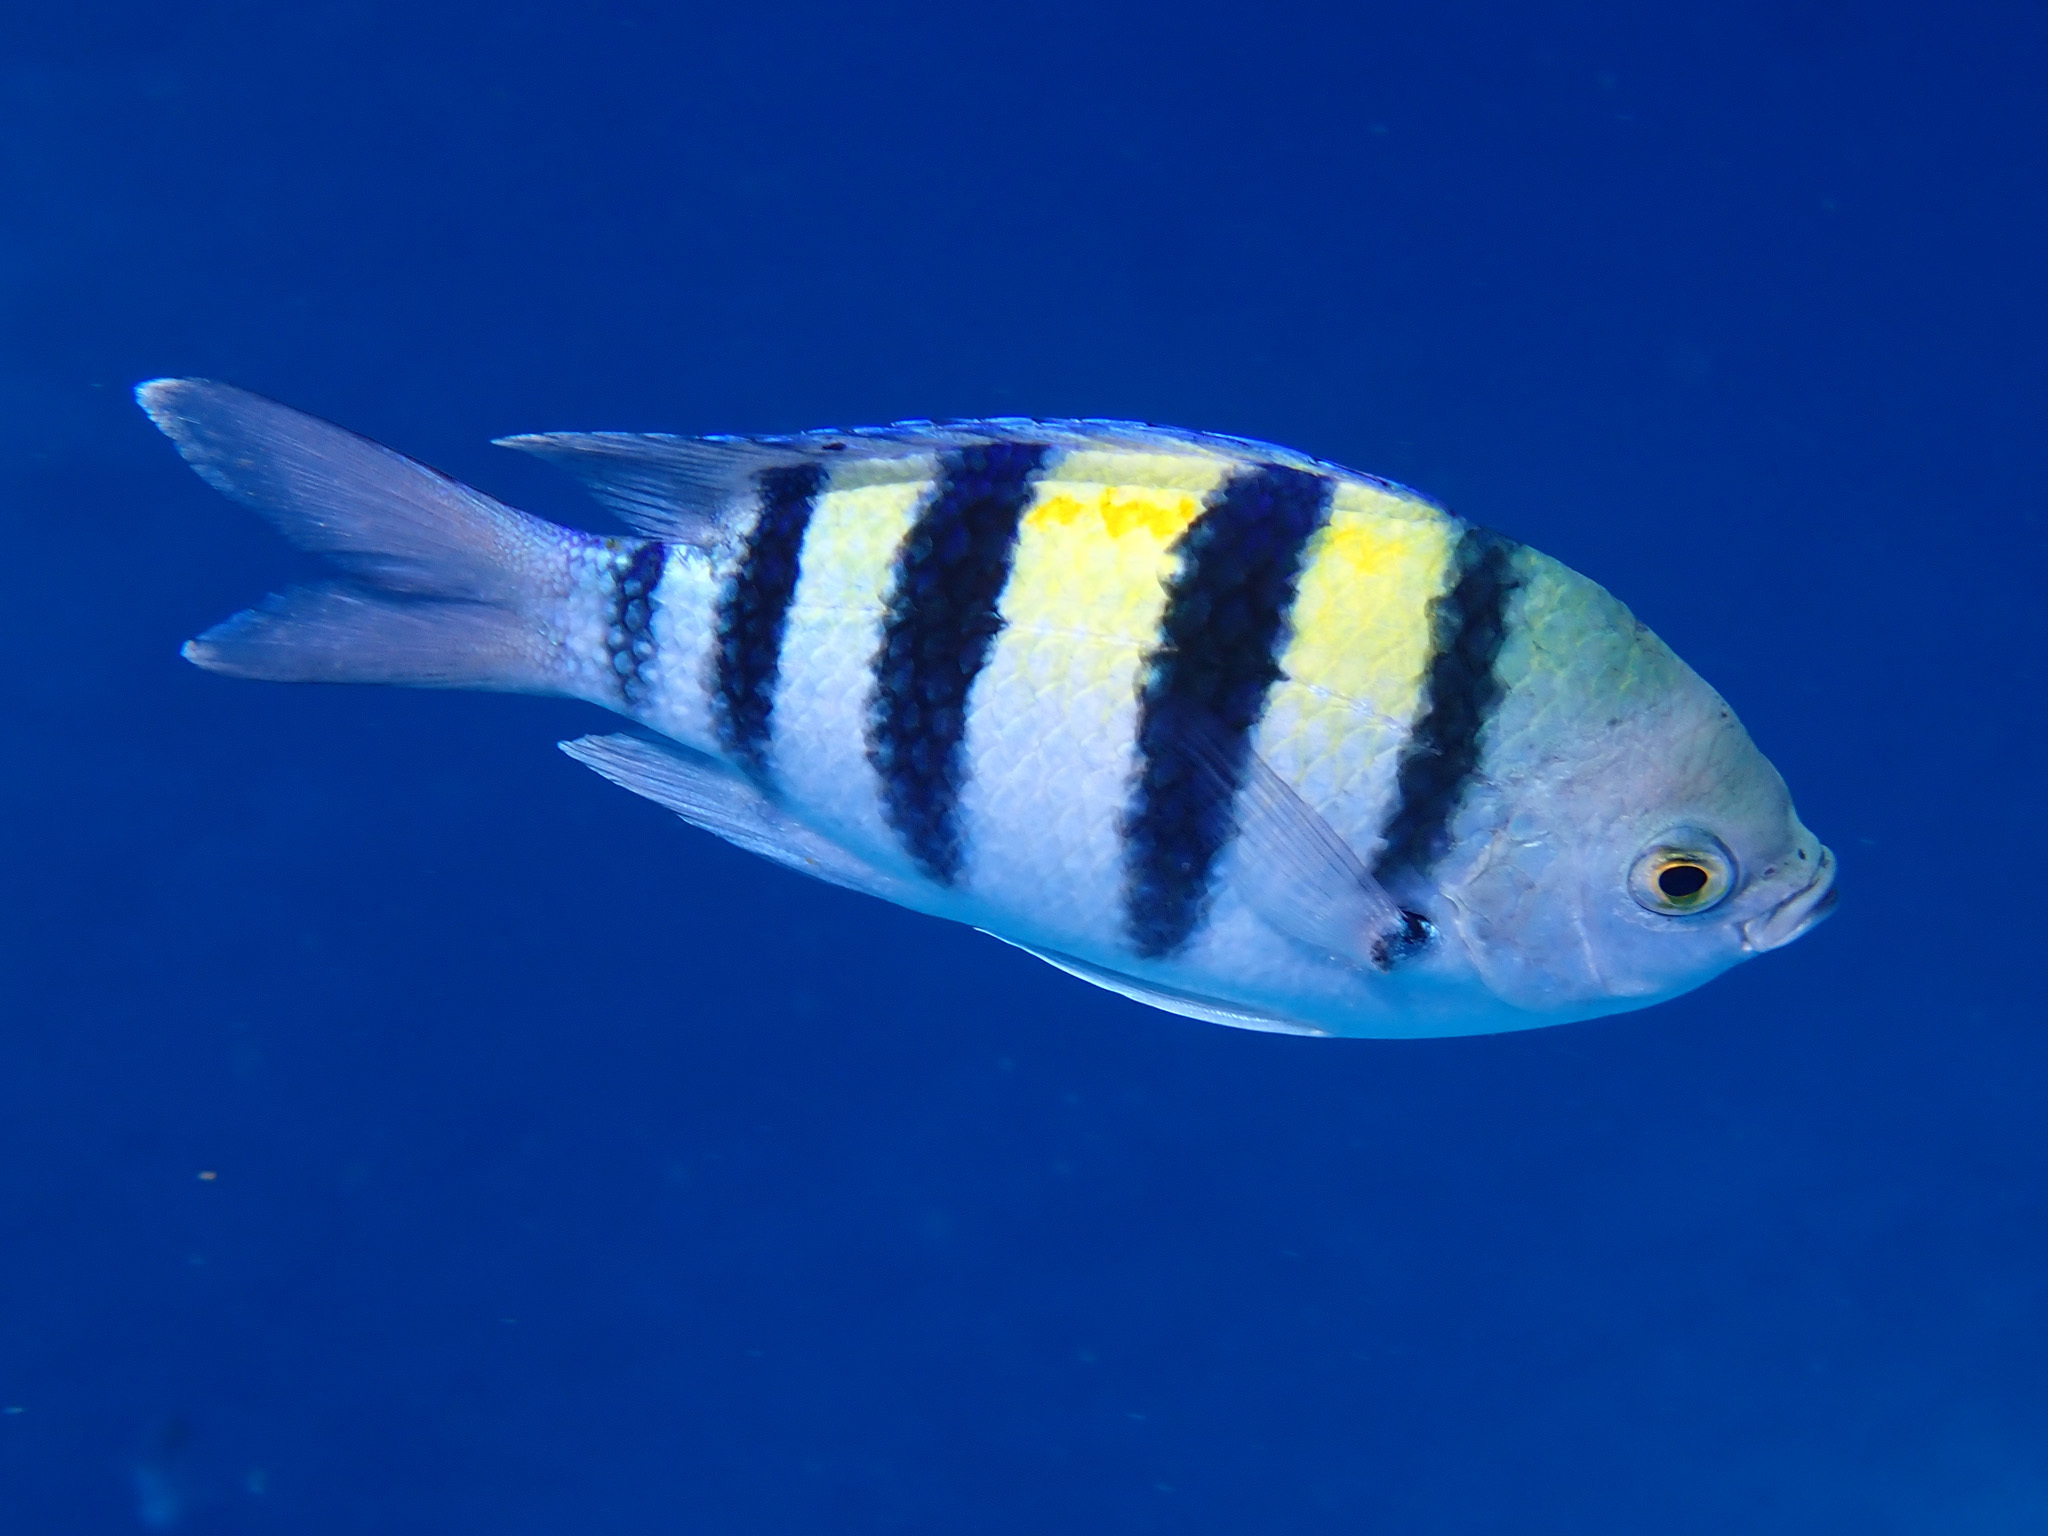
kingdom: Animalia
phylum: Chordata
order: Perciformes
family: Pomacentridae
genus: Abudefduf
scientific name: Abudefduf vaigiensis
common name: Indo-pacific sergeant
